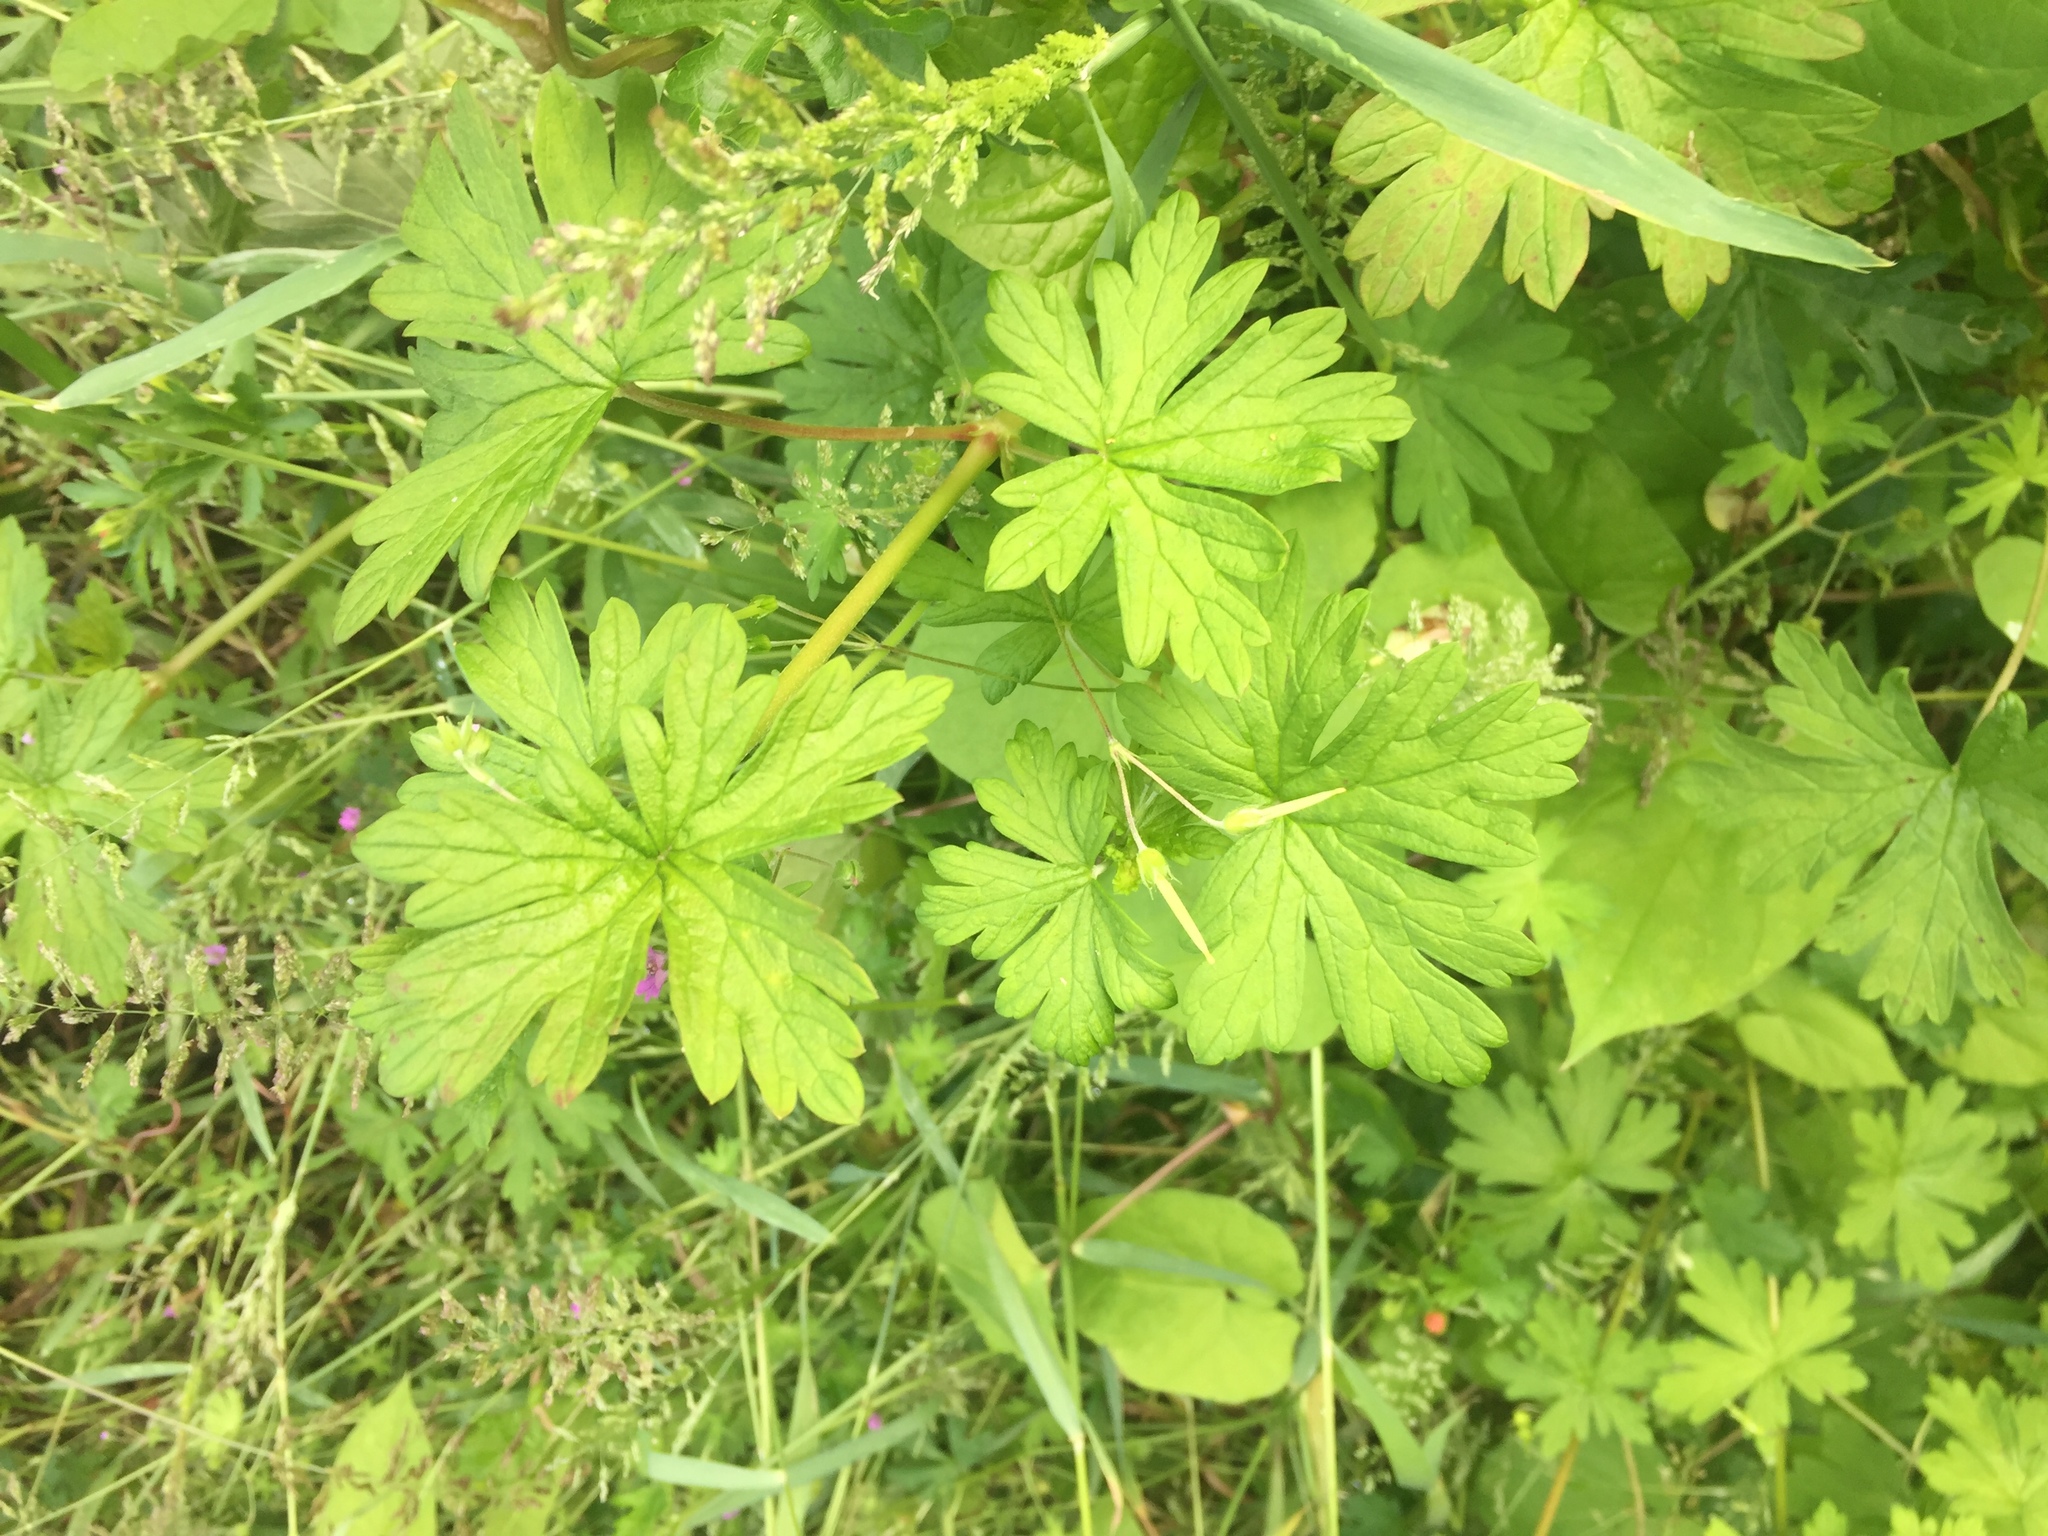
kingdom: Plantae
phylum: Tracheophyta
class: Magnoliopsida
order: Geraniales
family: Geraniaceae
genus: Geranium
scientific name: Geranium homeanum
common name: Australasian geranium
